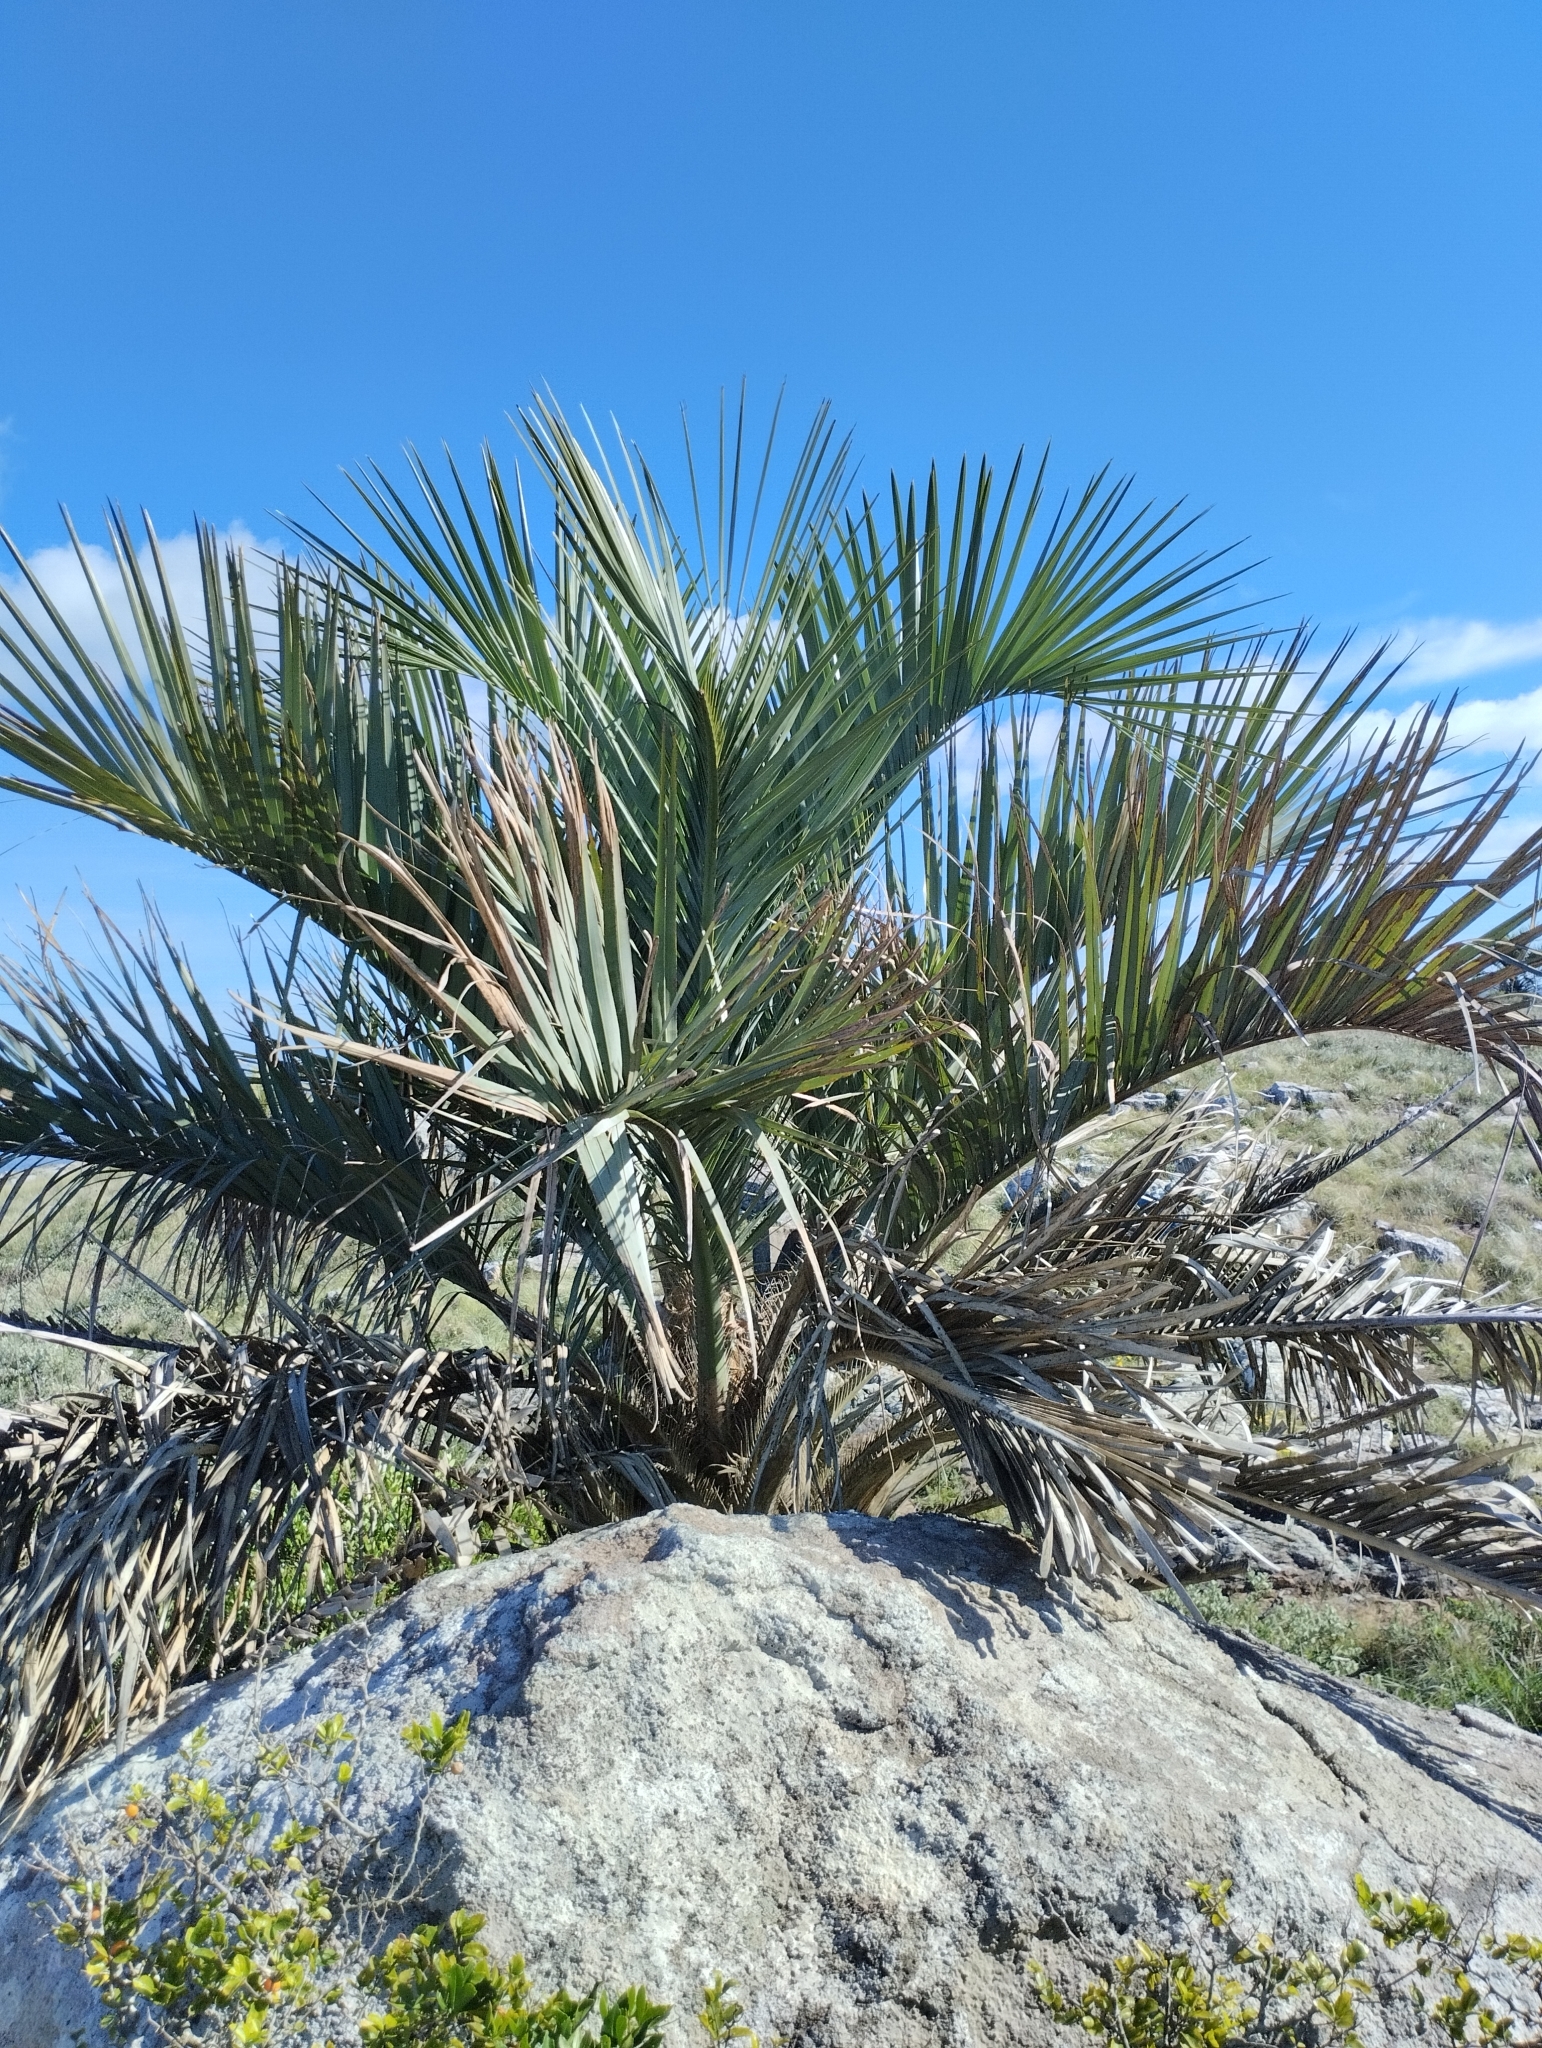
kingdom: Plantae
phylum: Tracheophyta
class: Liliopsida
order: Arecales
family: Arecaceae
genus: Butia
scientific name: Butia odorata
